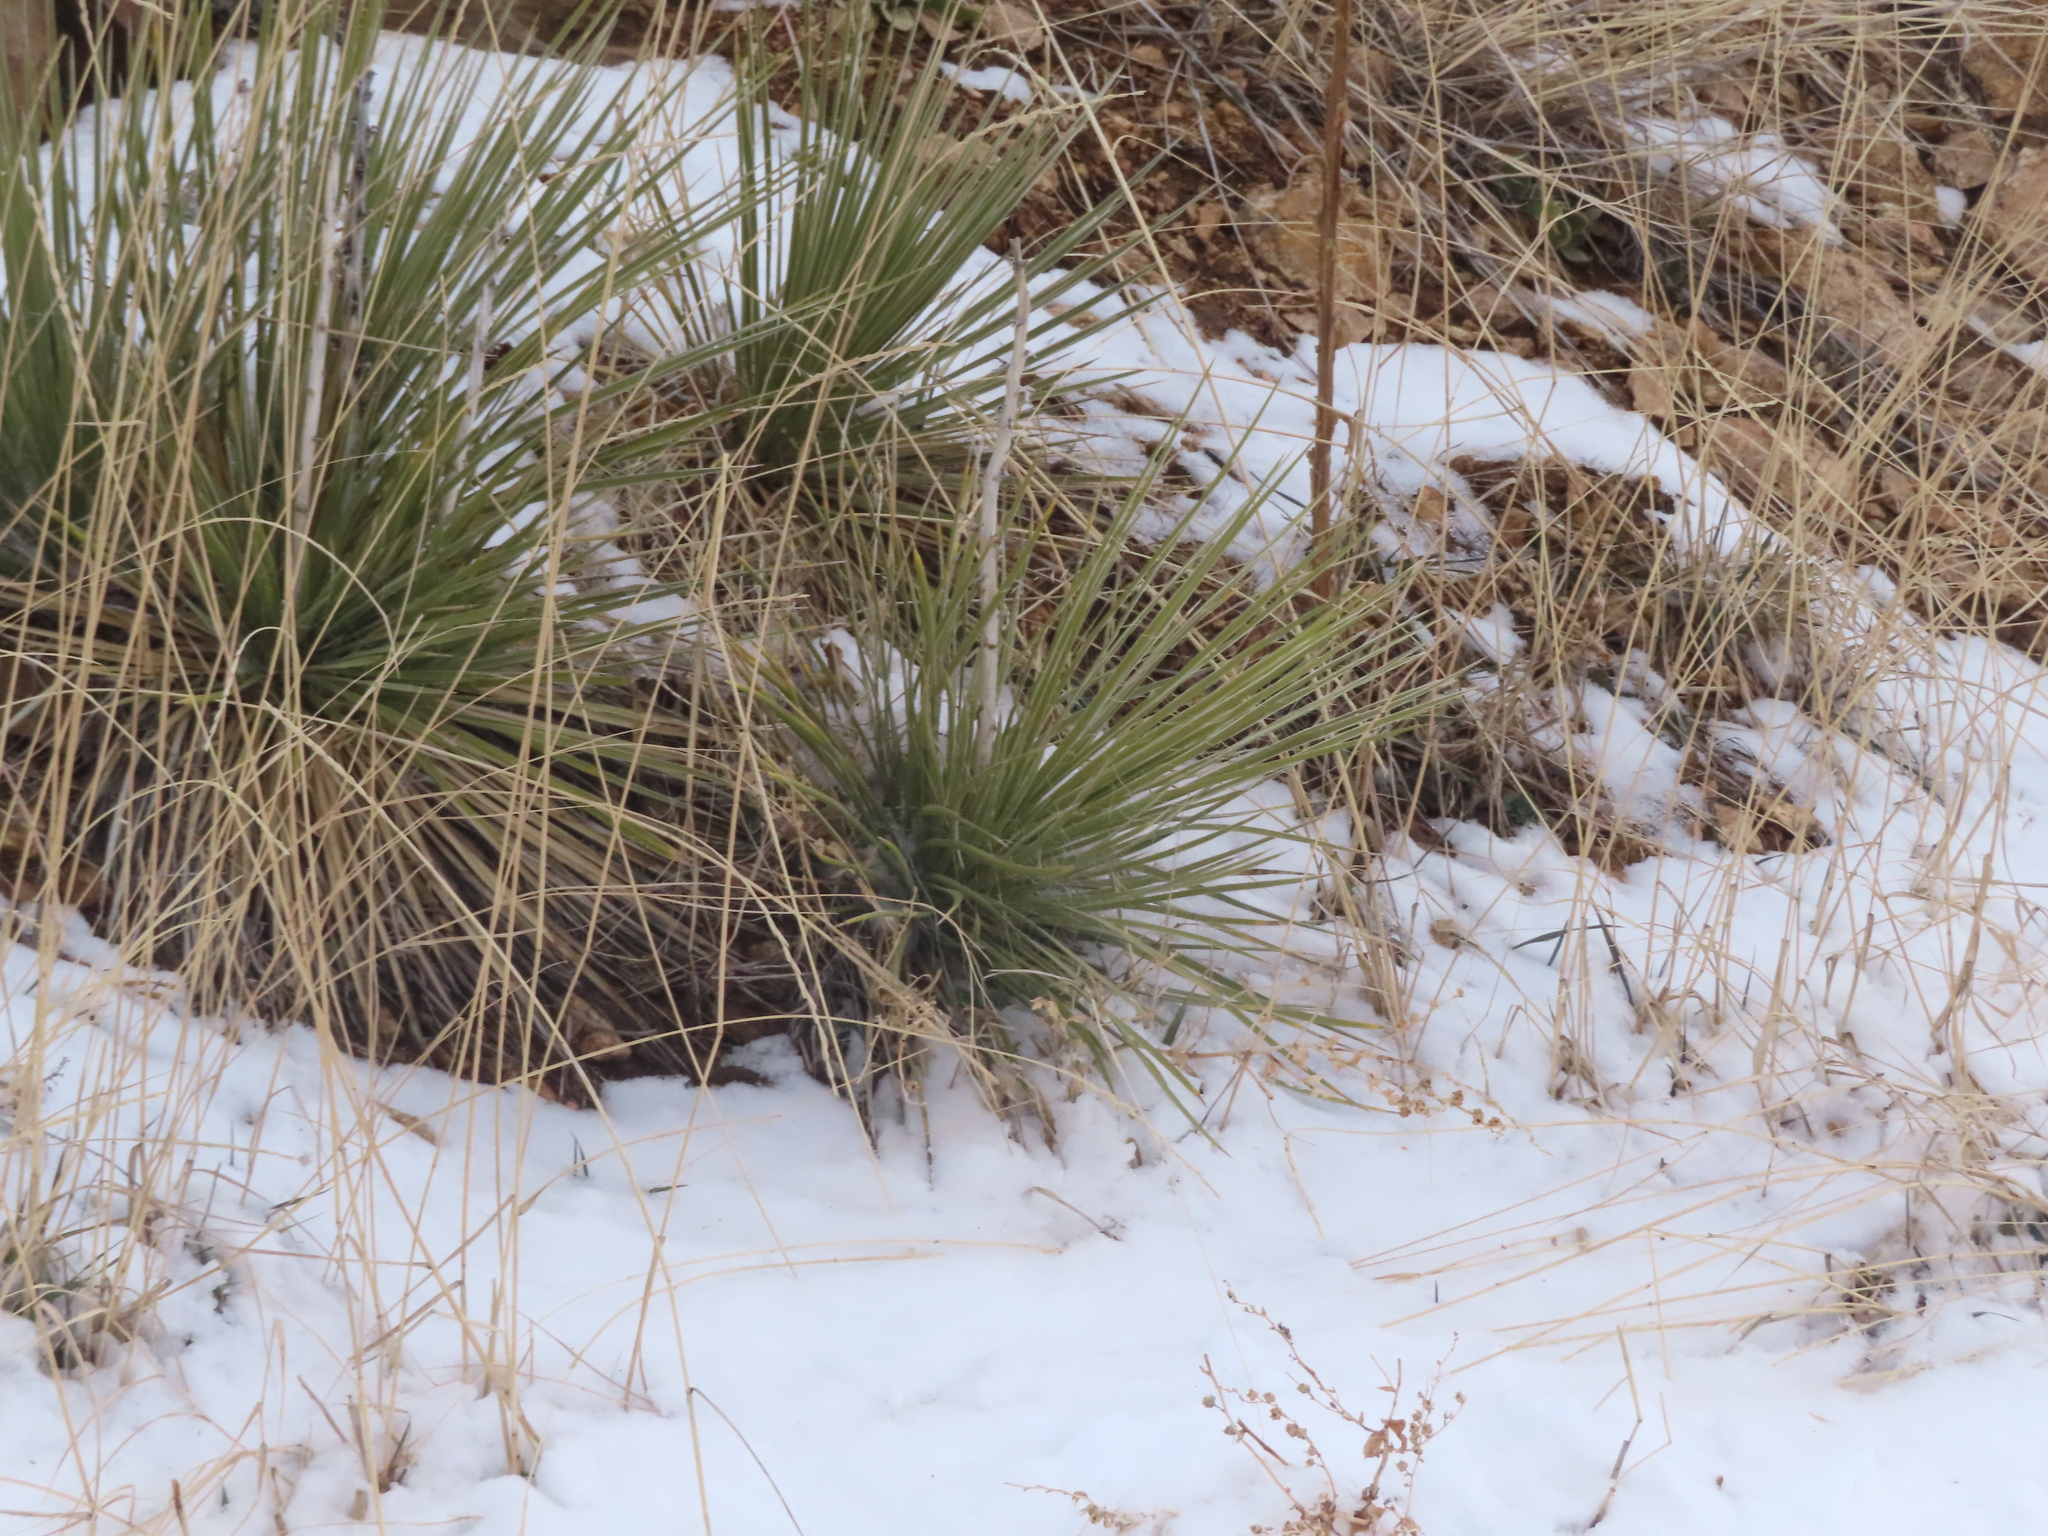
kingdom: Plantae
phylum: Tracheophyta
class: Liliopsida
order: Asparagales
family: Asparagaceae
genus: Yucca
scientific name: Yucca glauca
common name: Great plains yucca
